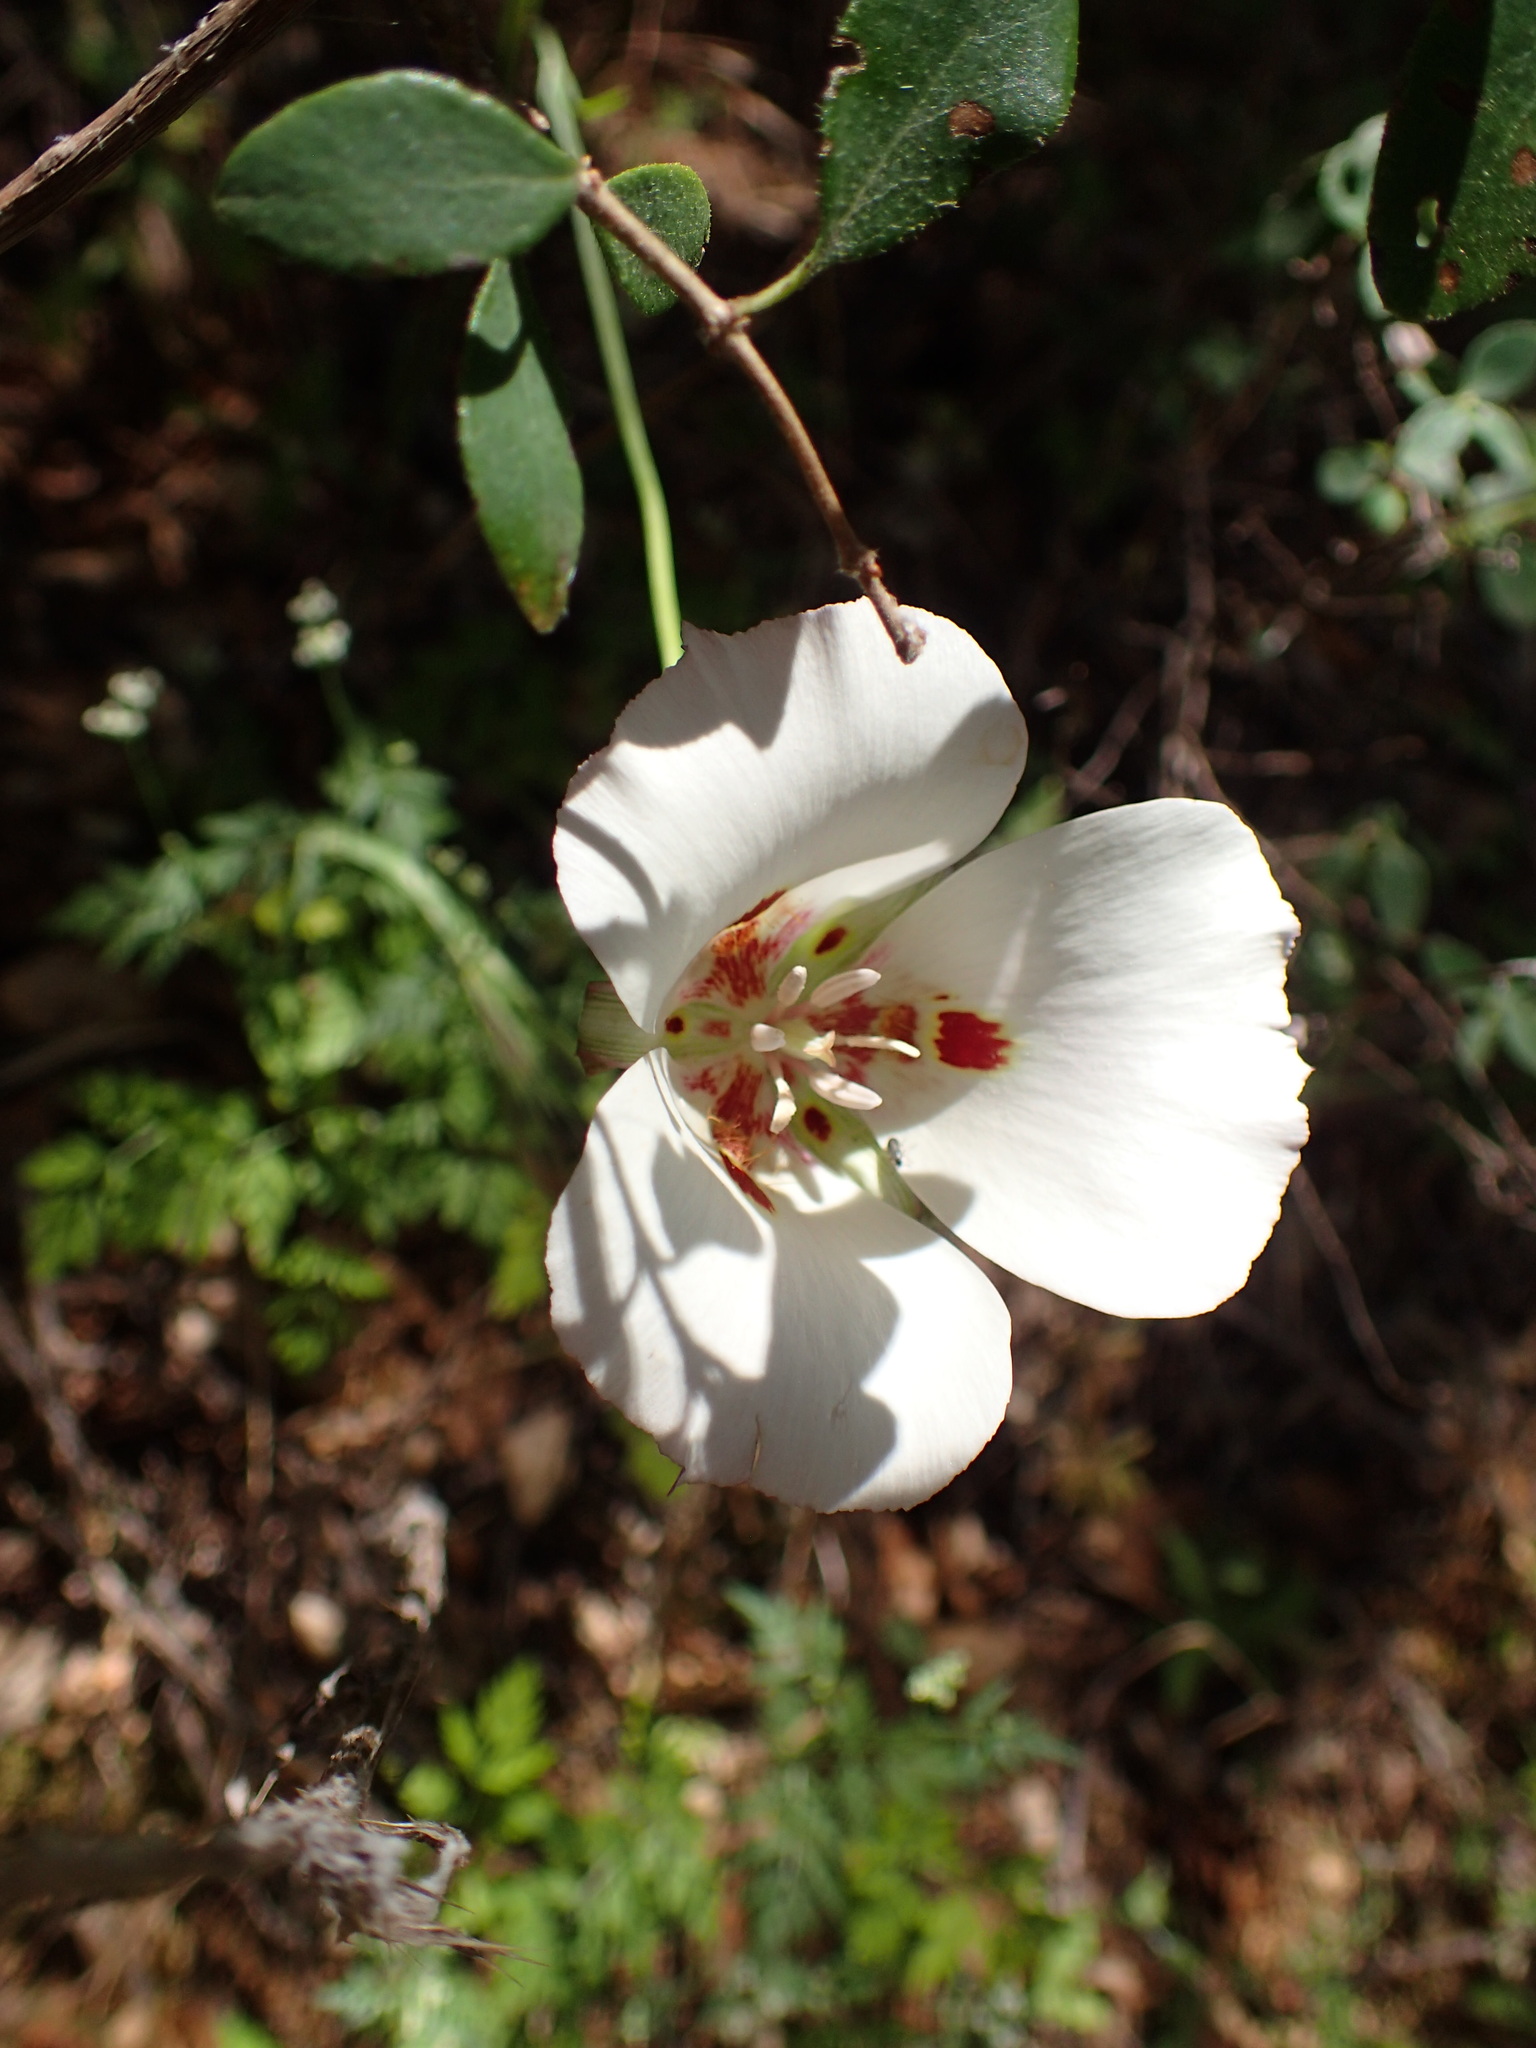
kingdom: Plantae
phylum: Tracheophyta
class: Liliopsida
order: Liliales
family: Liliaceae
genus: Calochortus
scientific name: Calochortus venustus
